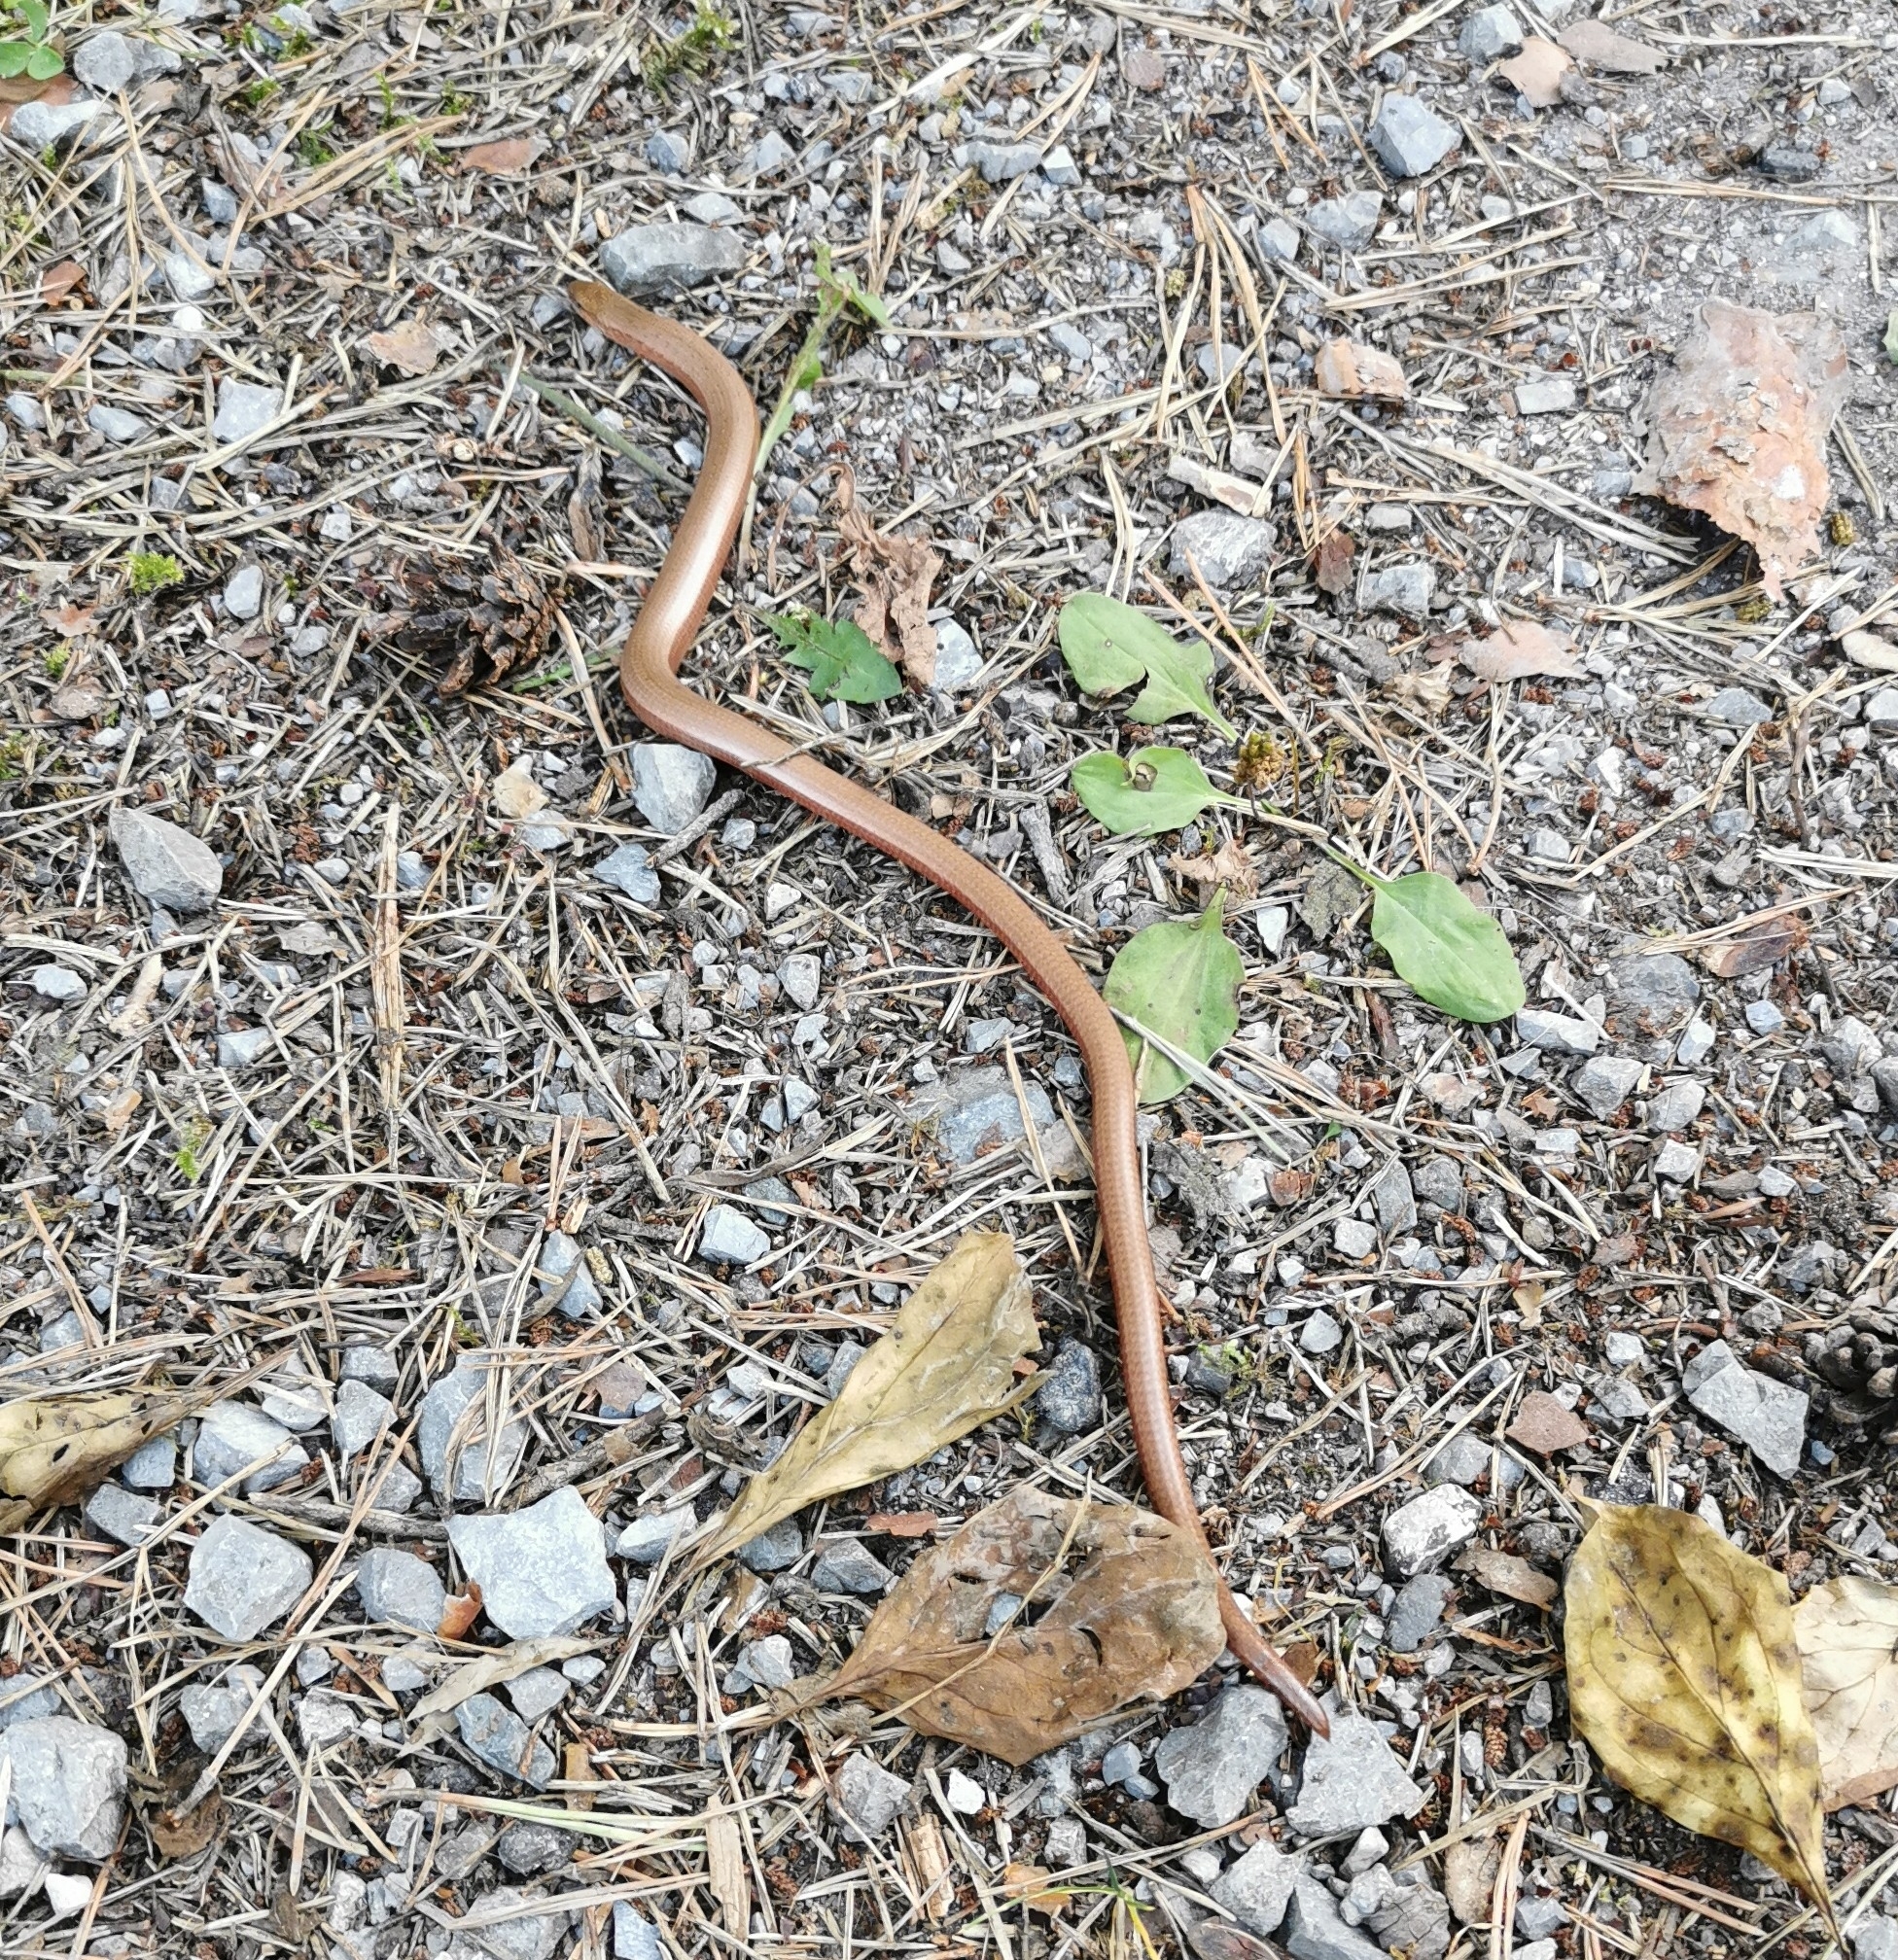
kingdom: Animalia
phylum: Chordata
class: Squamata
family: Anguidae
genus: Anguis
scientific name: Anguis fragilis
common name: Slow worm
